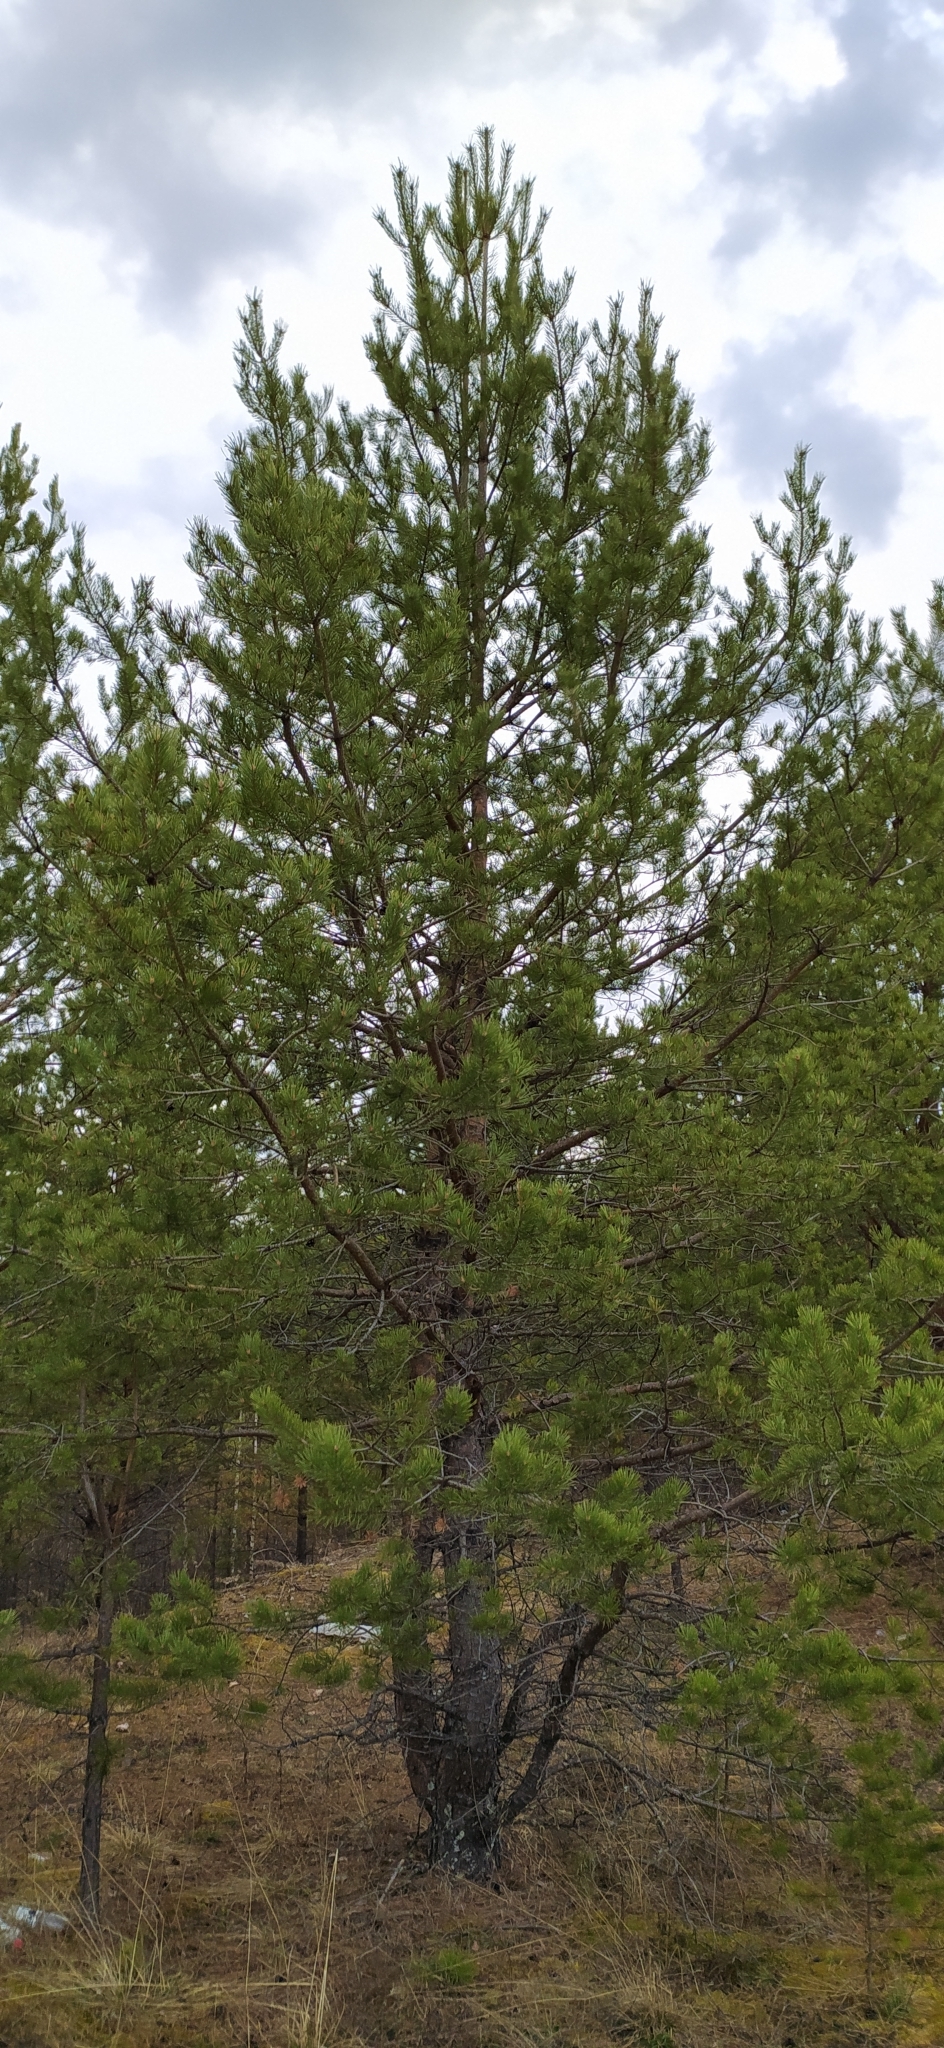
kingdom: Plantae
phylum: Tracheophyta
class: Pinopsida
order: Pinales
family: Pinaceae
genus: Pinus
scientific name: Pinus sylvestris
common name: Scots pine
